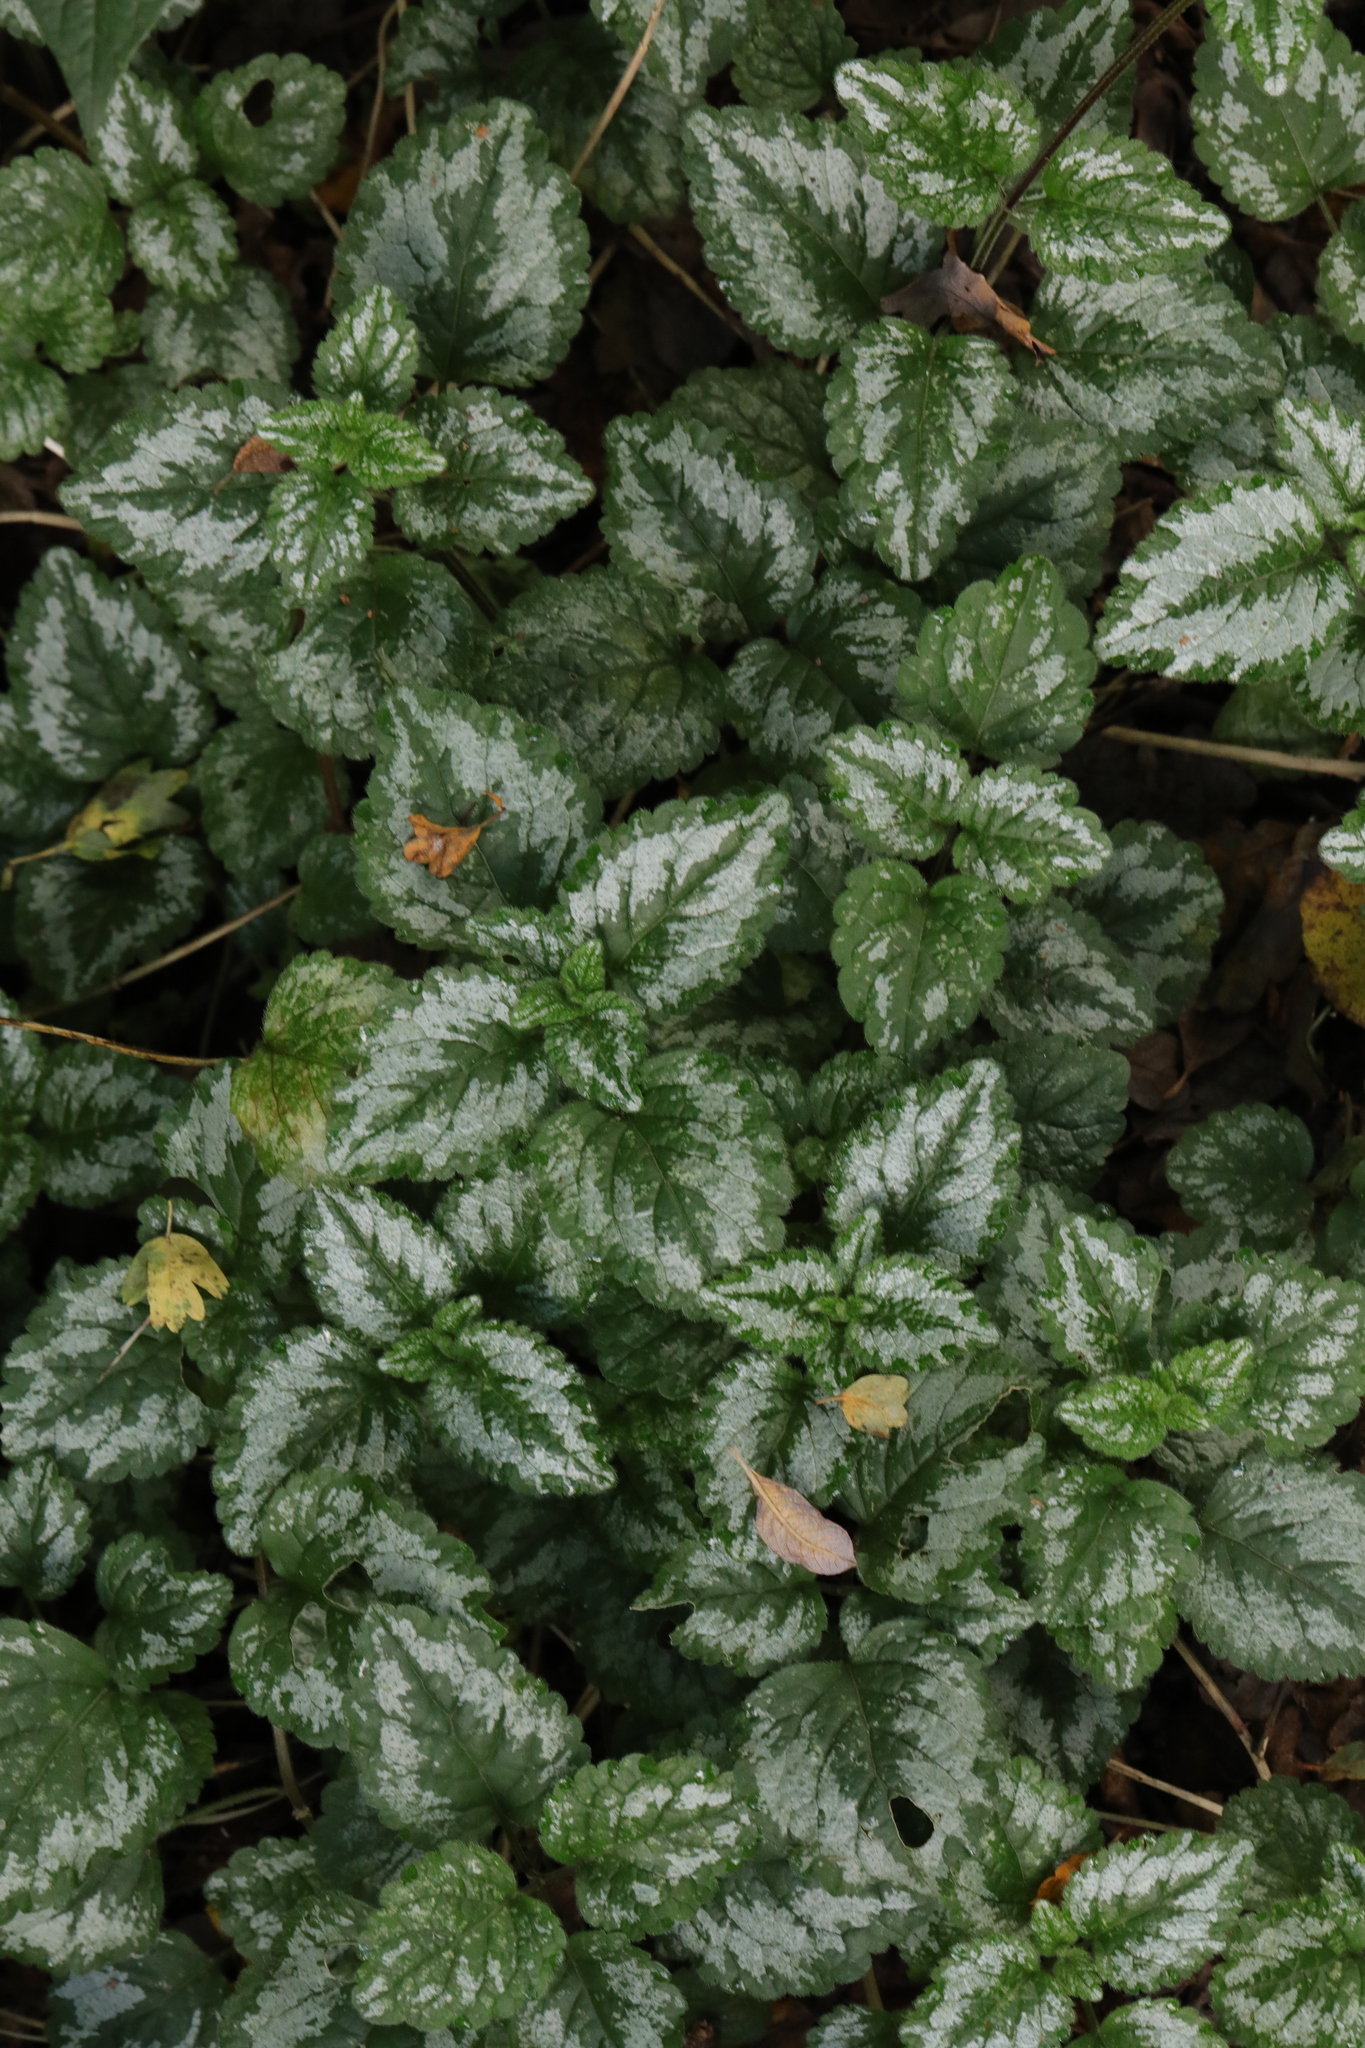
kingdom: Plantae
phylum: Tracheophyta
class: Magnoliopsida
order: Lamiales
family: Lamiaceae
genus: Lamium
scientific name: Lamium galeobdolon
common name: Yellow archangel
